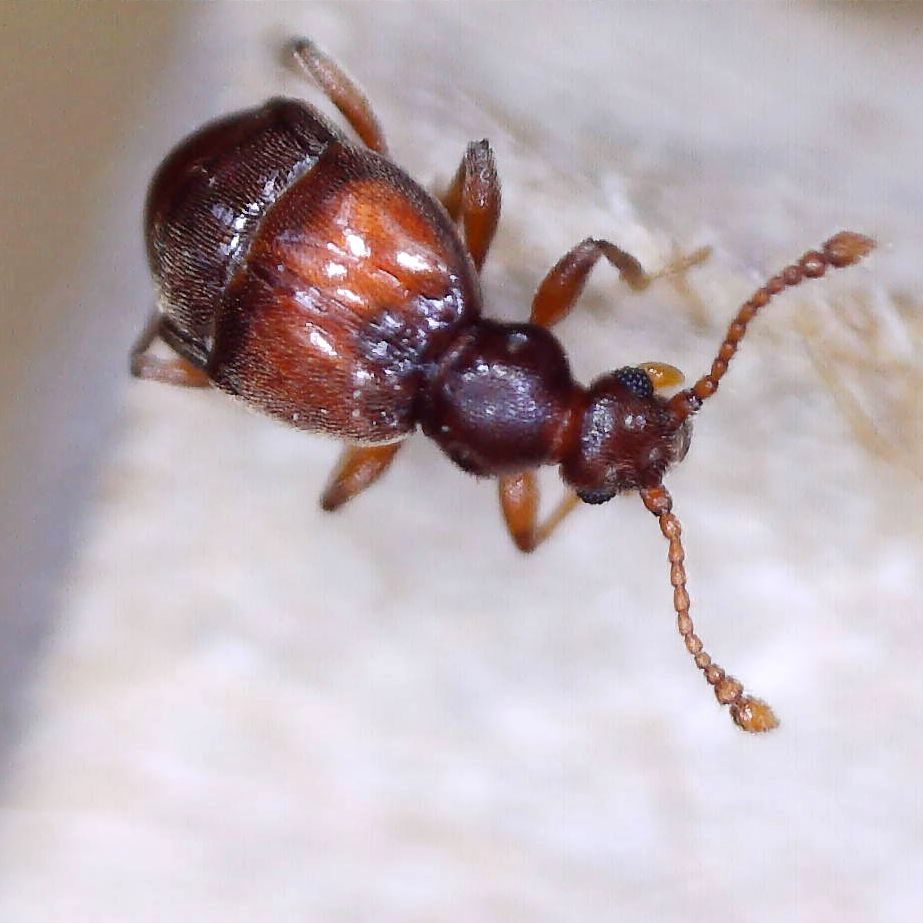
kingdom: Animalia
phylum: Arthropoda
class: Insecta
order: Coleoptera
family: Staphylinidae
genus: Reichenbachia
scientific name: Reichenbachia juncorum
